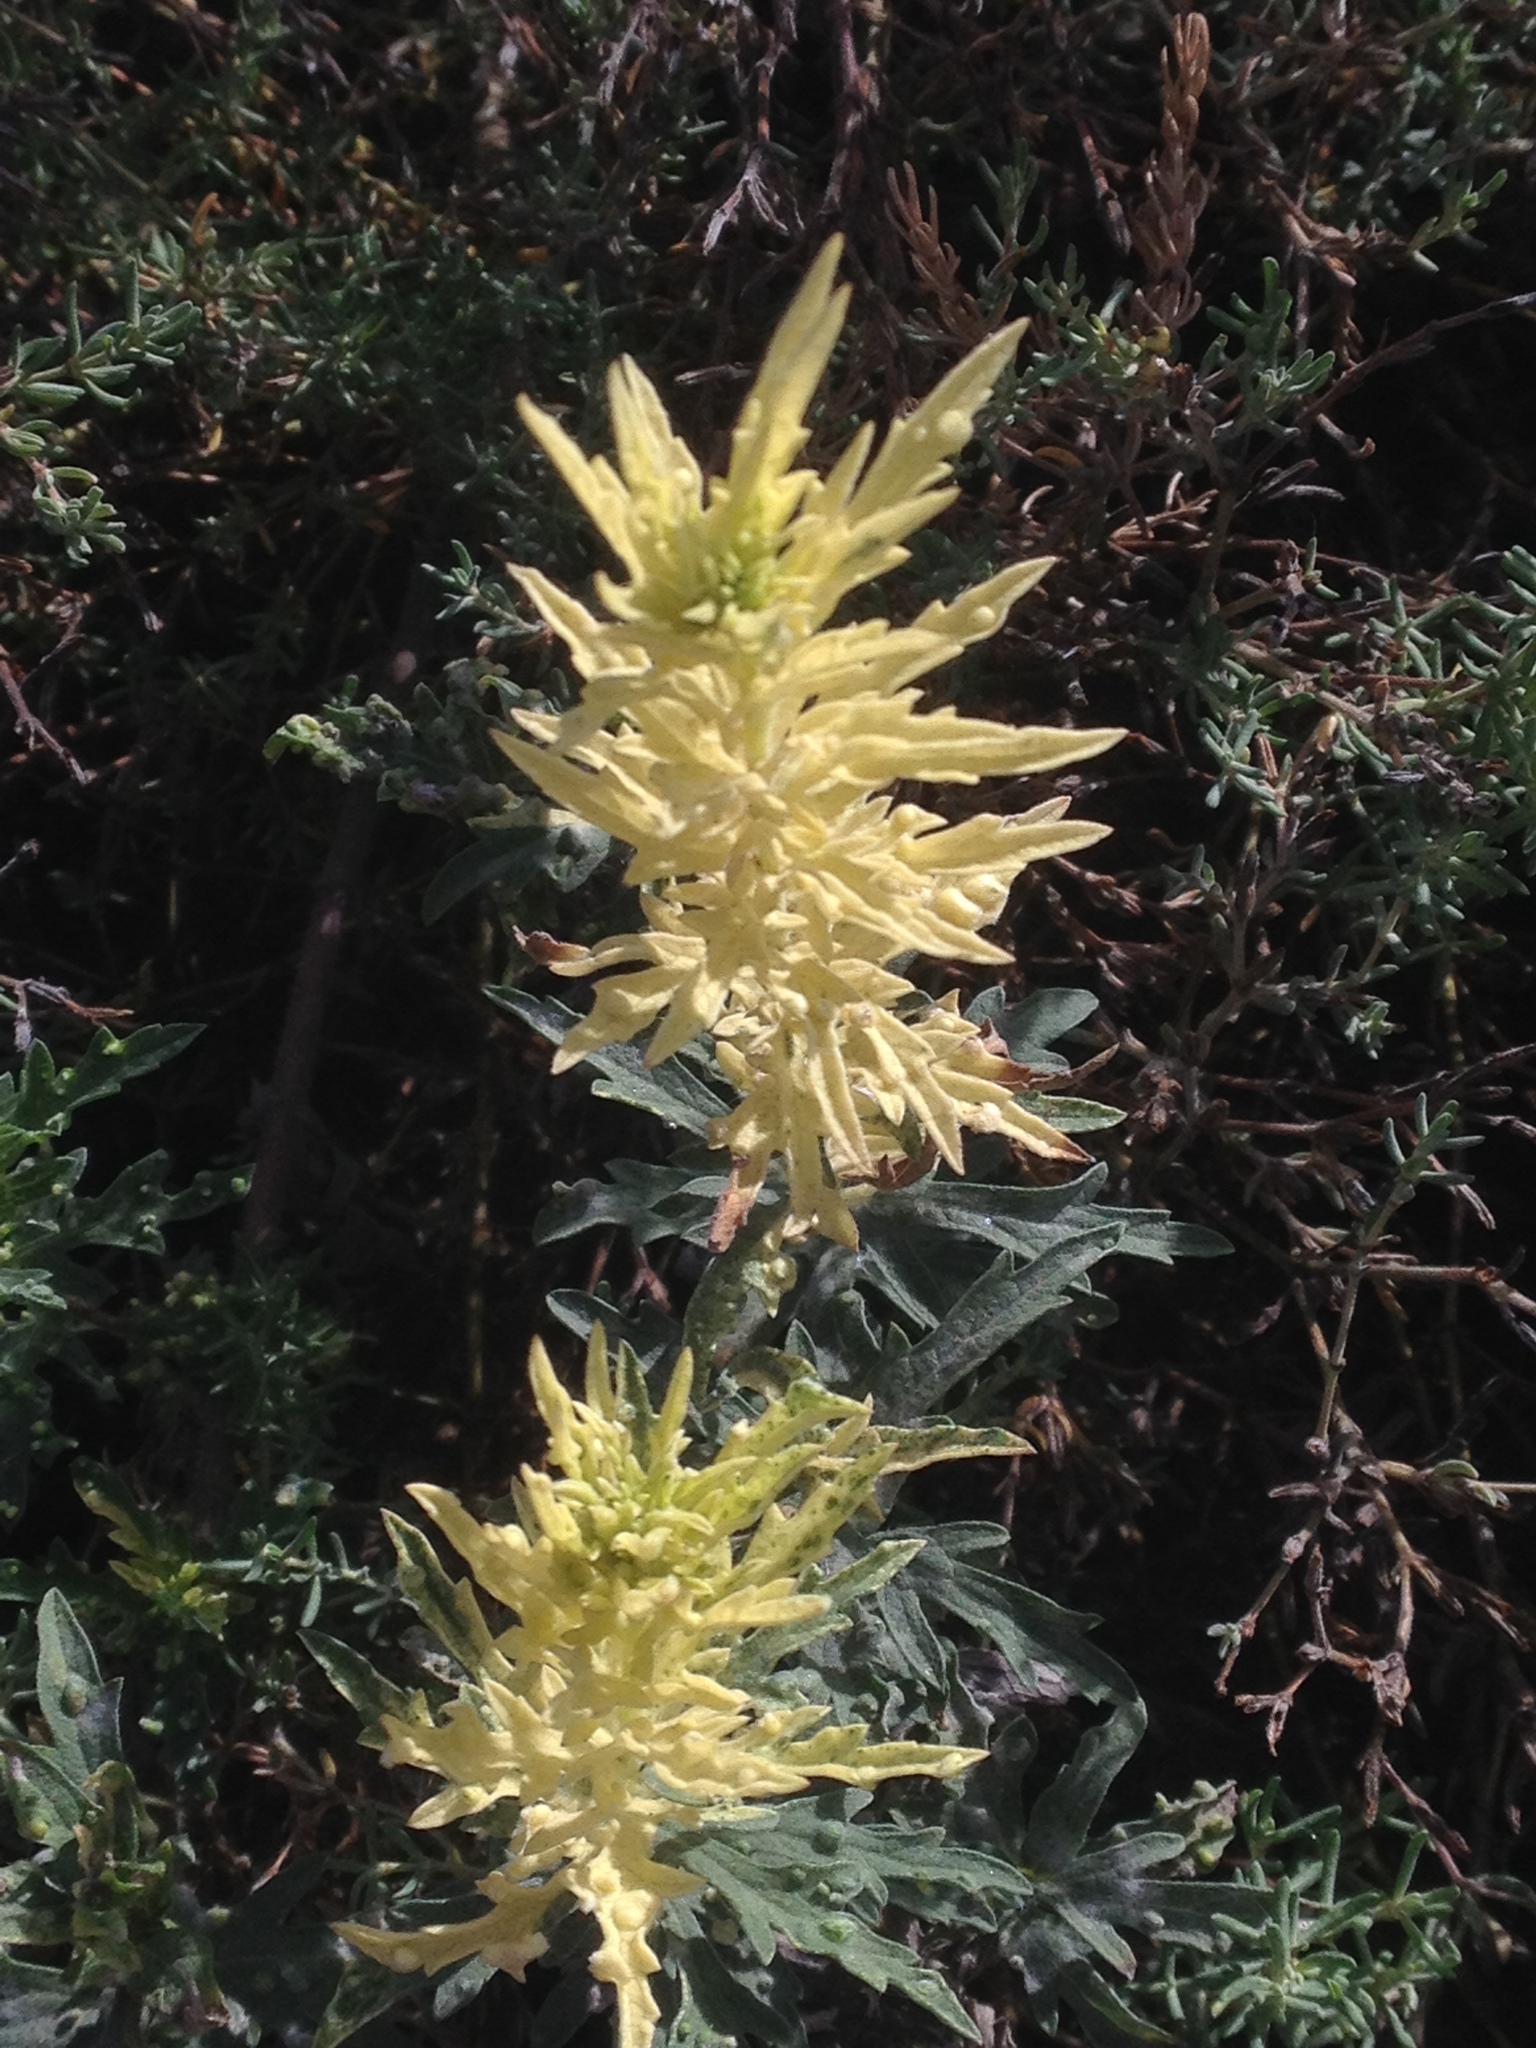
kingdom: Plantae
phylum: Tracheophyta
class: Magnoliopsida
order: Asterales
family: Asteraceae
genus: Ambrosia
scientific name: Ambrosia psilostachya
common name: Perennial ragweed
